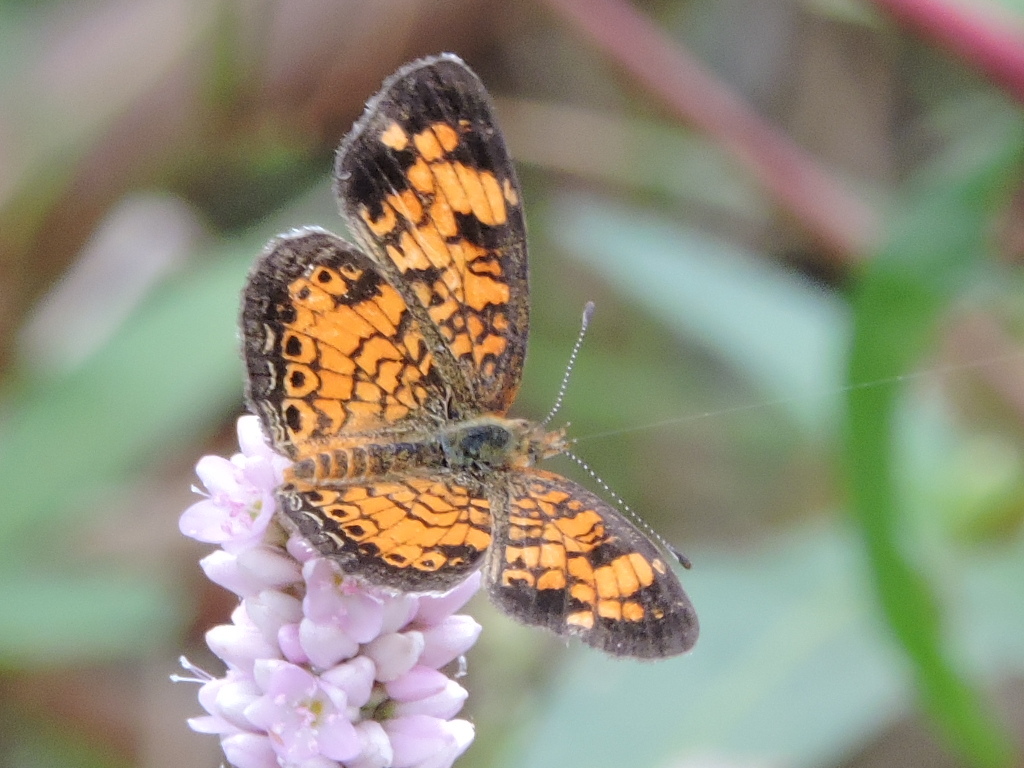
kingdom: Animalia
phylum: Arthropoda
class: Insecta
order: Lepidoptera
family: Nymphalidae
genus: Phyciodes
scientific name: Phyciodes tharos
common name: Pearl crescent
